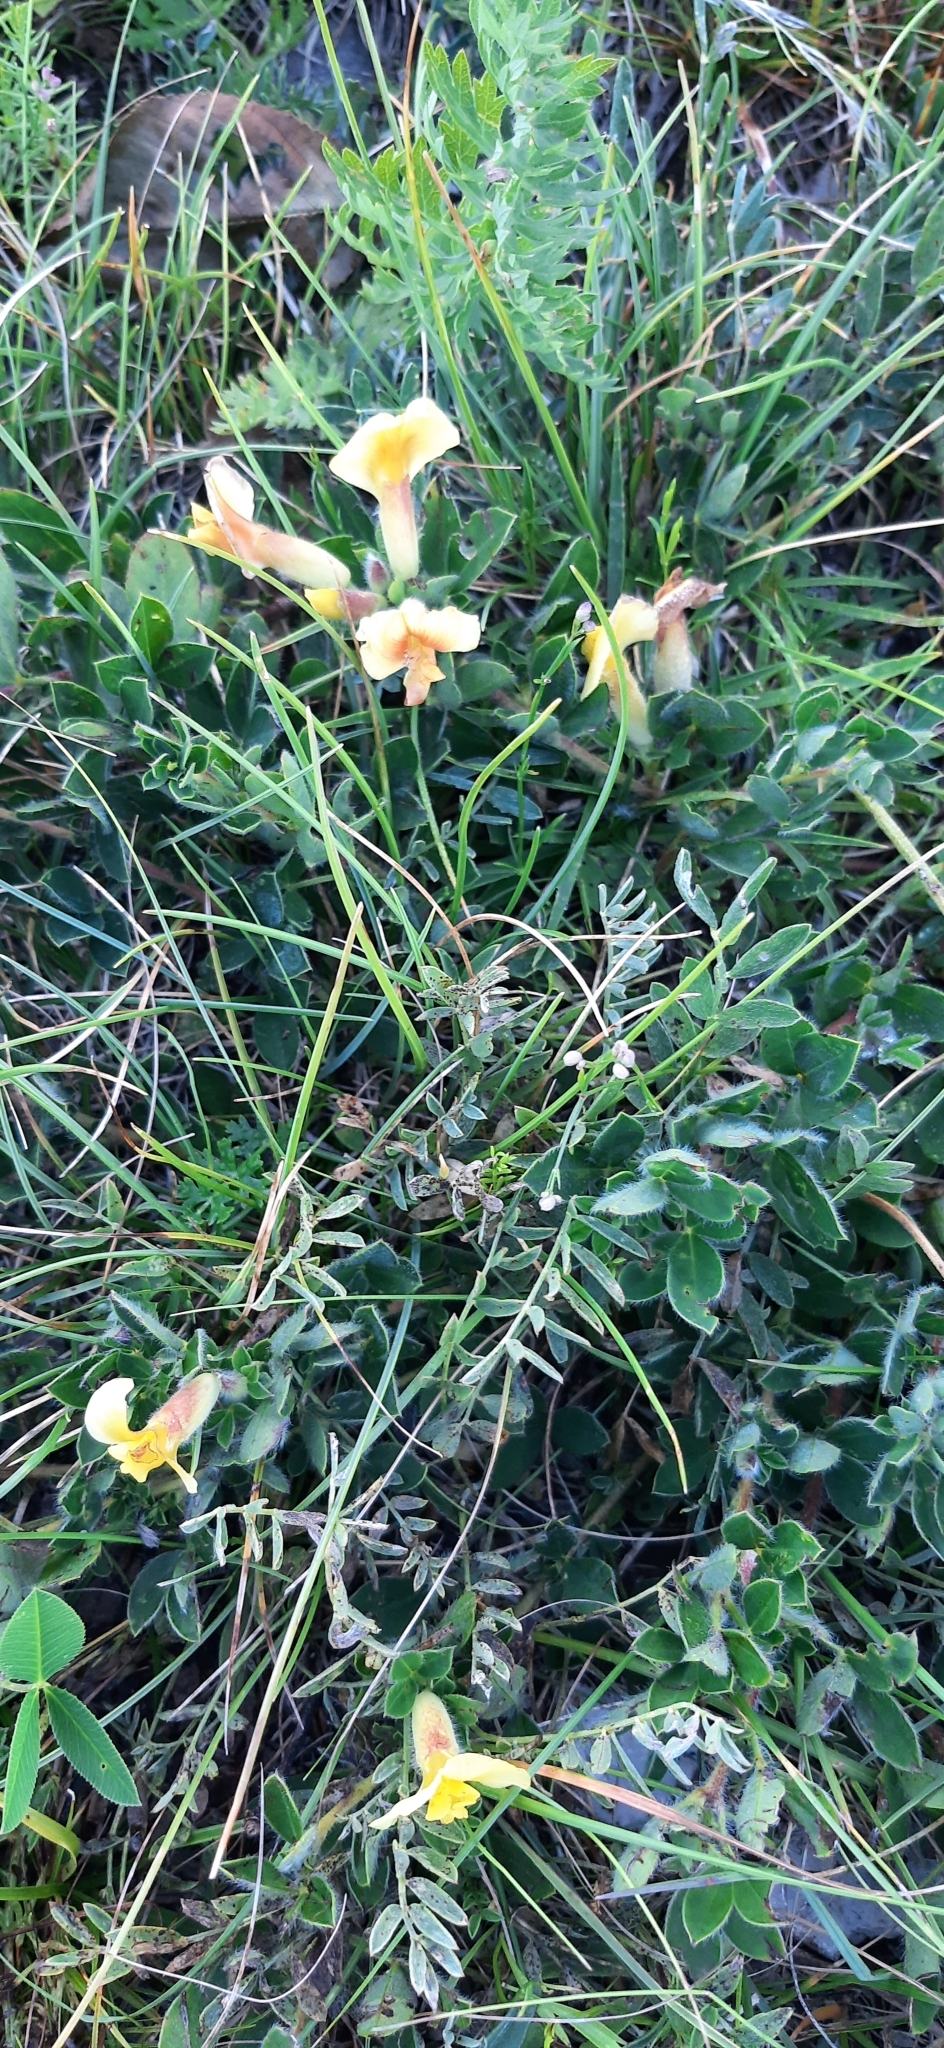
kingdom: Plantae
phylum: Tracheophyta
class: Magnoliopsida
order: Fabales
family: Fabaceae
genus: Chamaecytisus
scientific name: Chamaecytisus supinus
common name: Clustered broom
